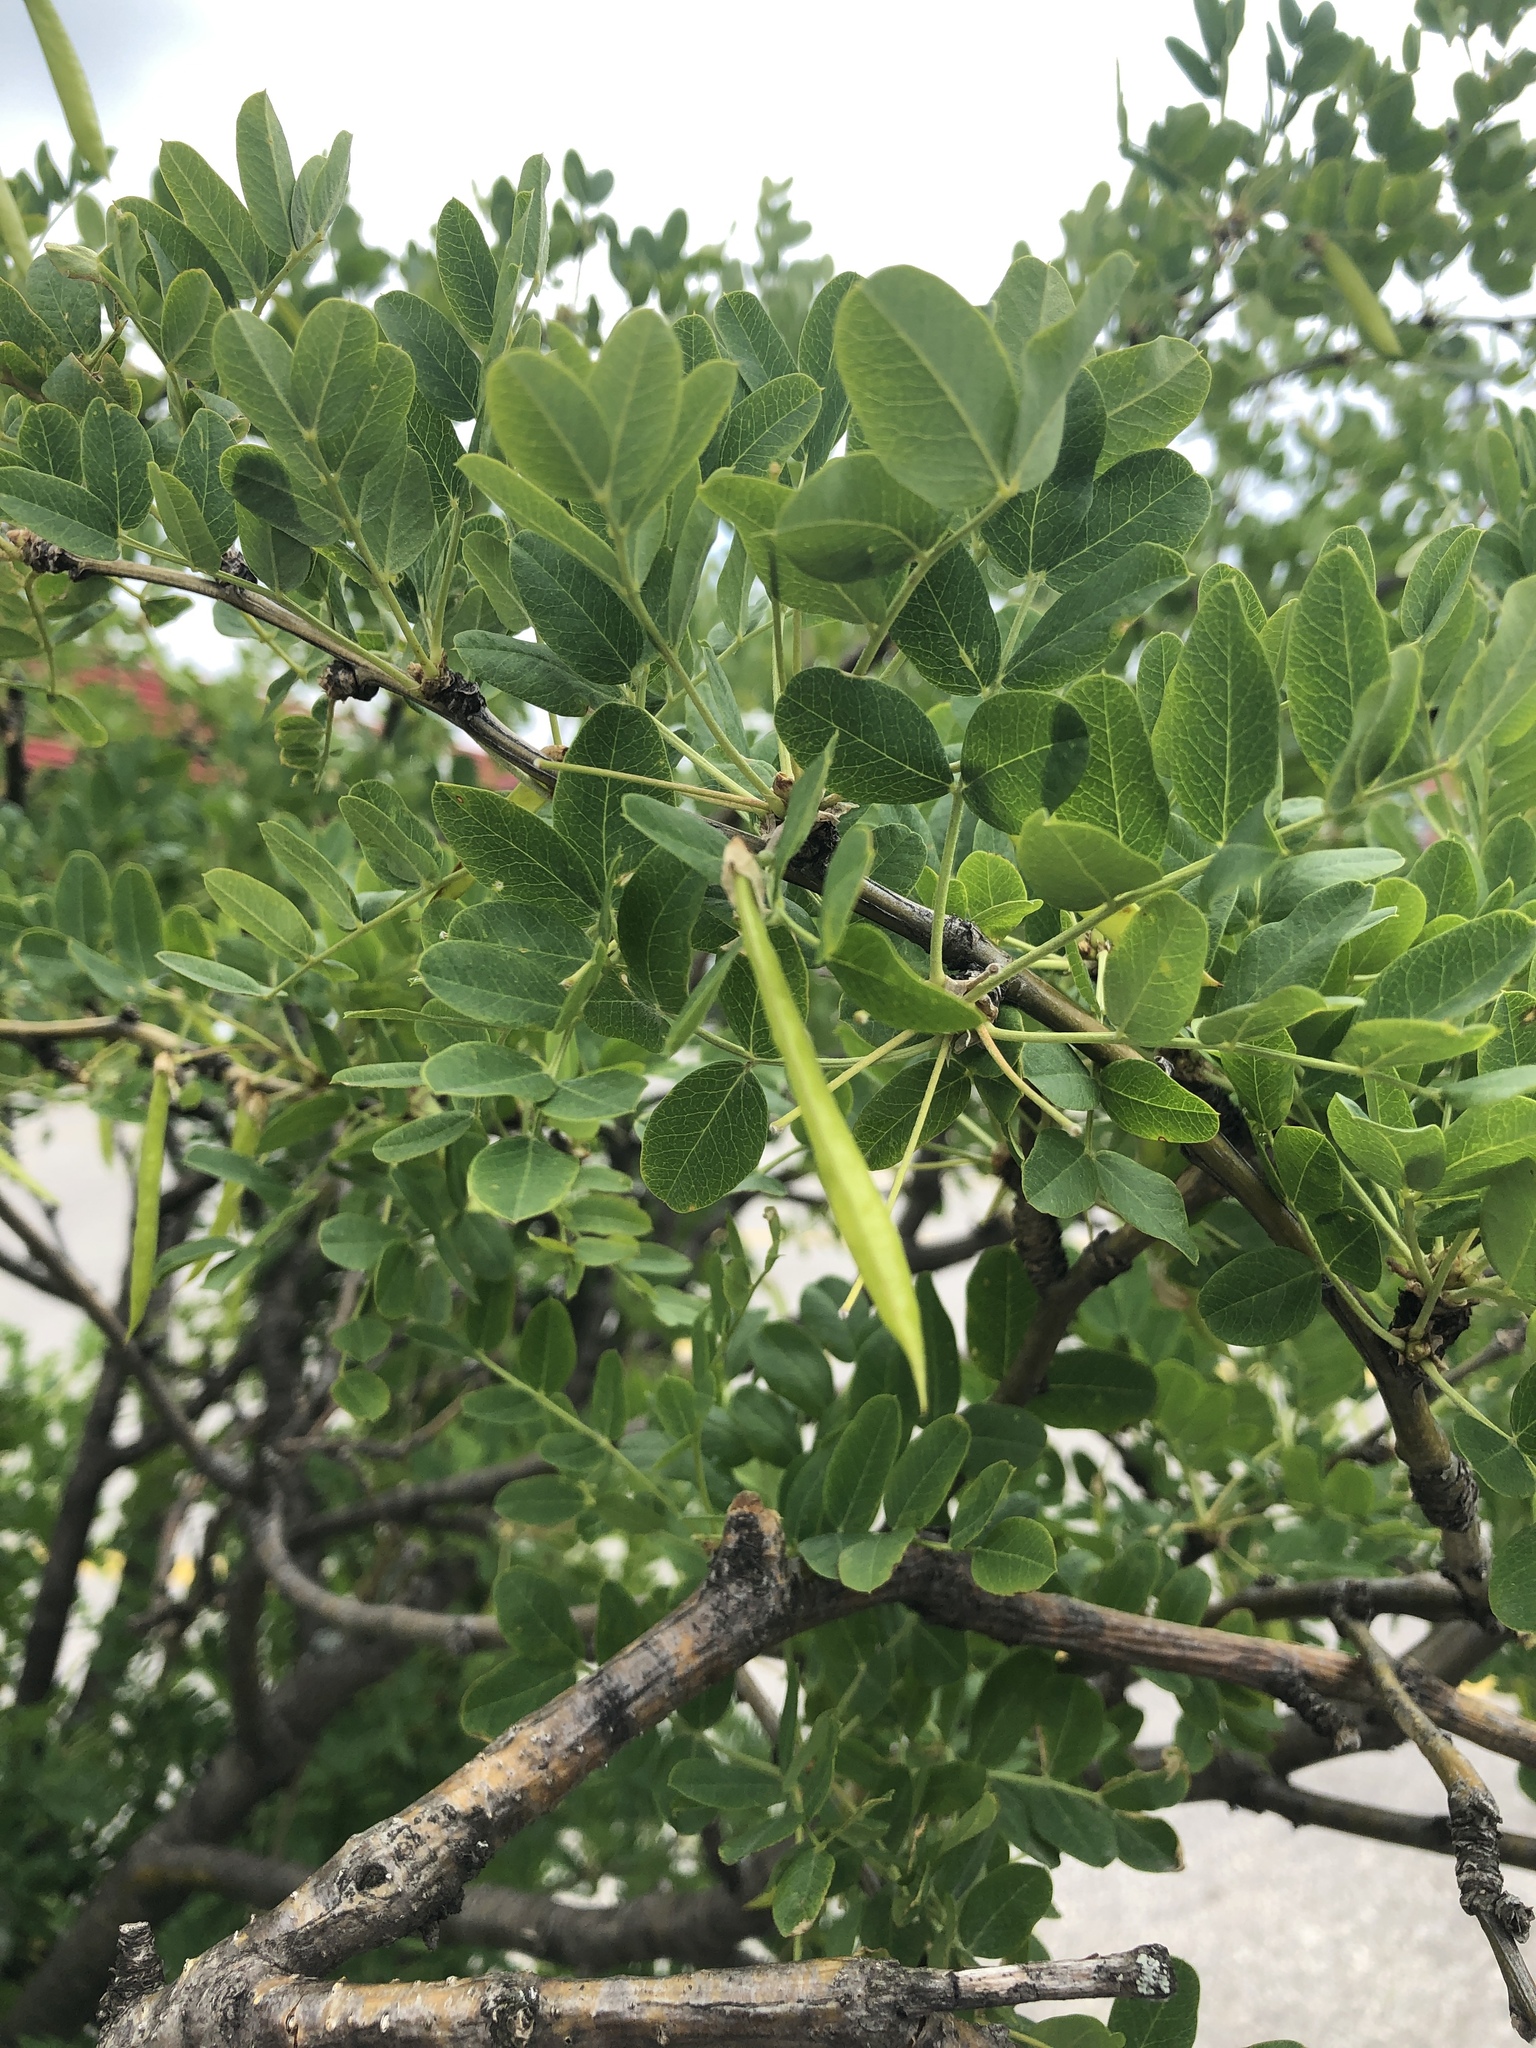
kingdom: Plantae
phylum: Tracheophyta
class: Magnoliopsida
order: Fabales
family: Fabaceae
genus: Caragana
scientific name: Caragana arborescens
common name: Siberian peashrub
